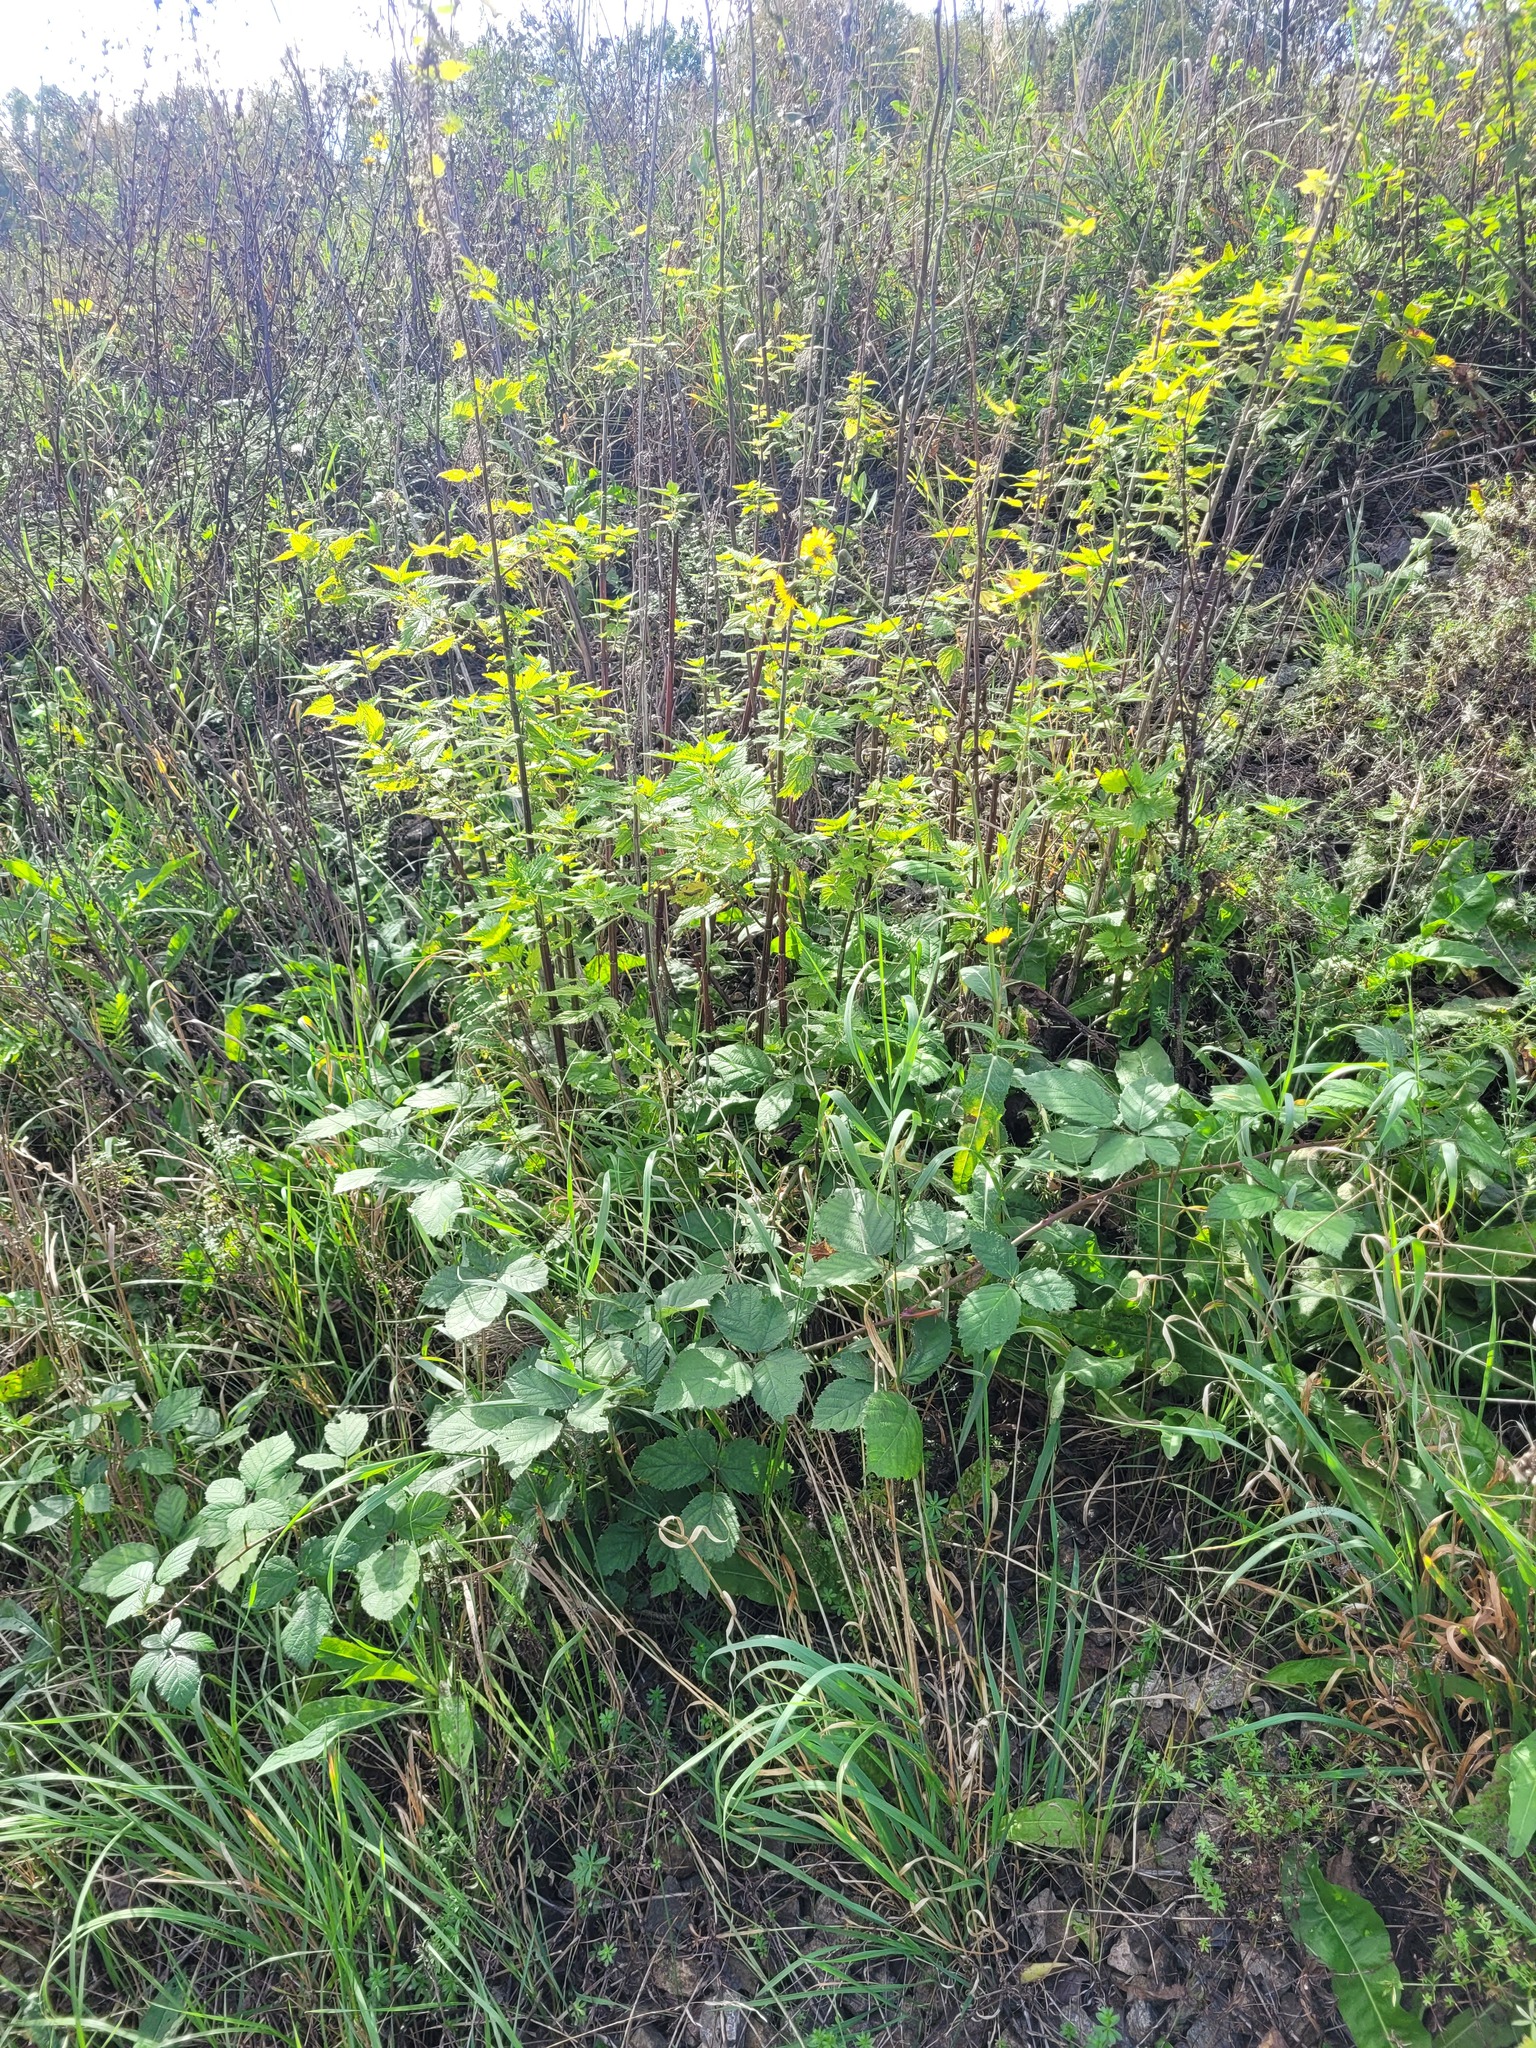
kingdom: Plantae
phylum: Tracheophyta
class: Magnoliopsida
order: Rosales
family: Rosaceae
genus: Rubus
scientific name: Rubus procerus
